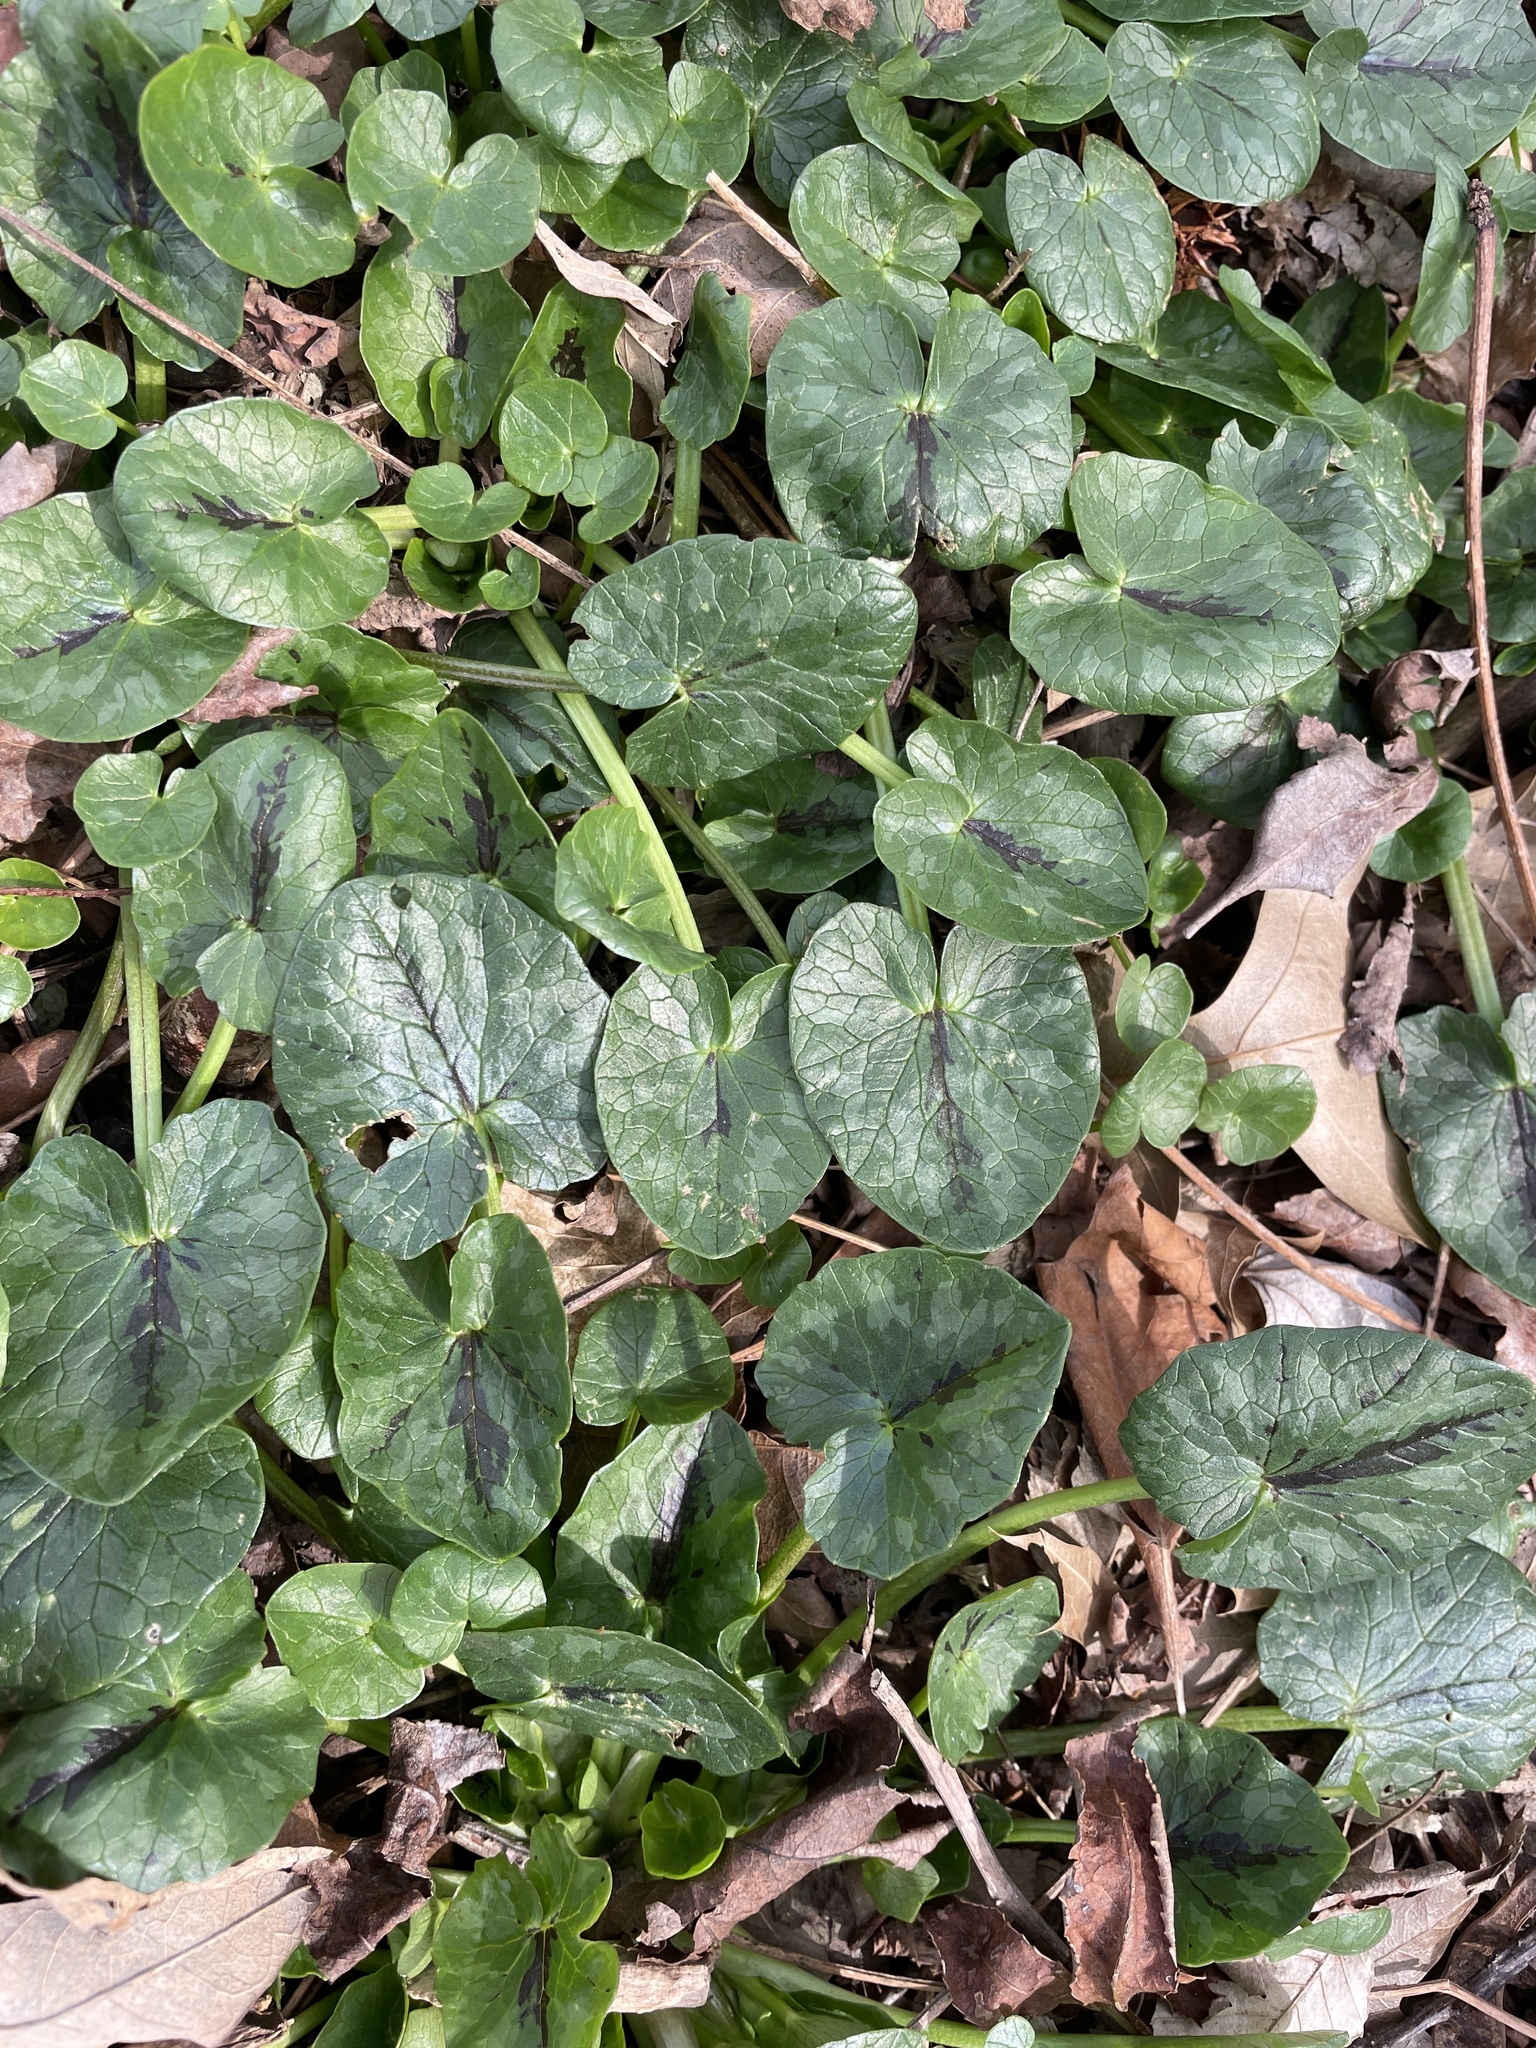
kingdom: Plantae
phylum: Tracheophyta
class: Magnoliopsida
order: Ranunculales
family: Ranunculaceae
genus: Ficaria
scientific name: Ficaria verna
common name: Lesser celandine
